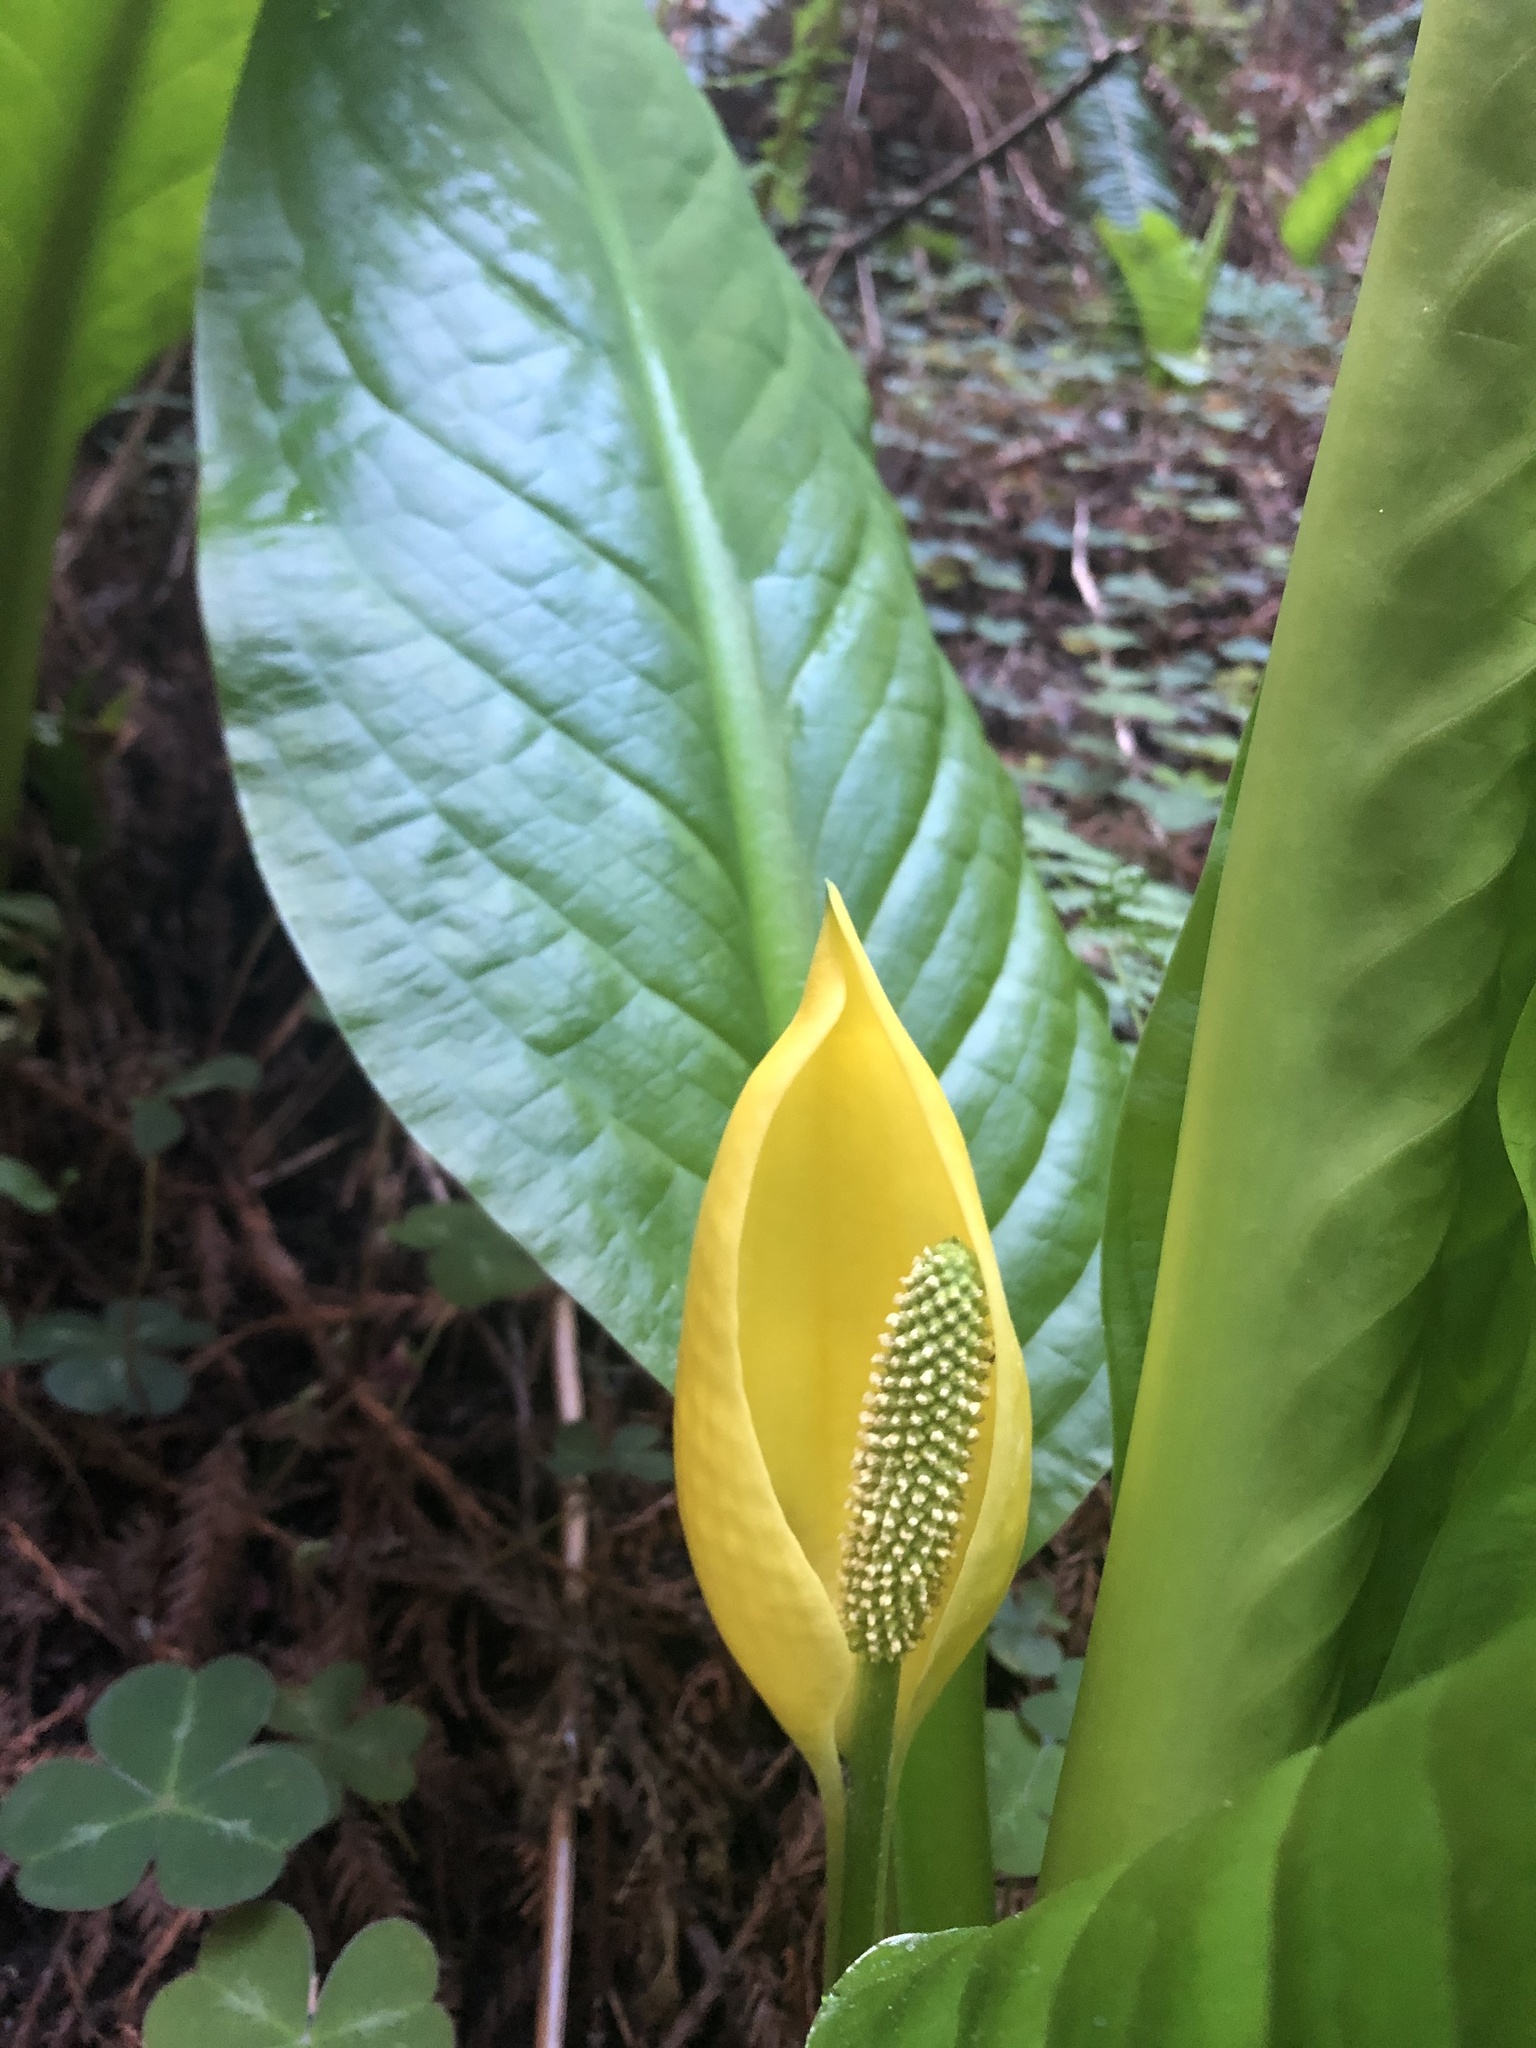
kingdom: Plantae
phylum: Tracheophyta
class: Liliopsida
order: Alismatales
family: Araceae
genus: Lysichiton
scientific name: Lysichiton americanus
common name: American skunk cabbage
